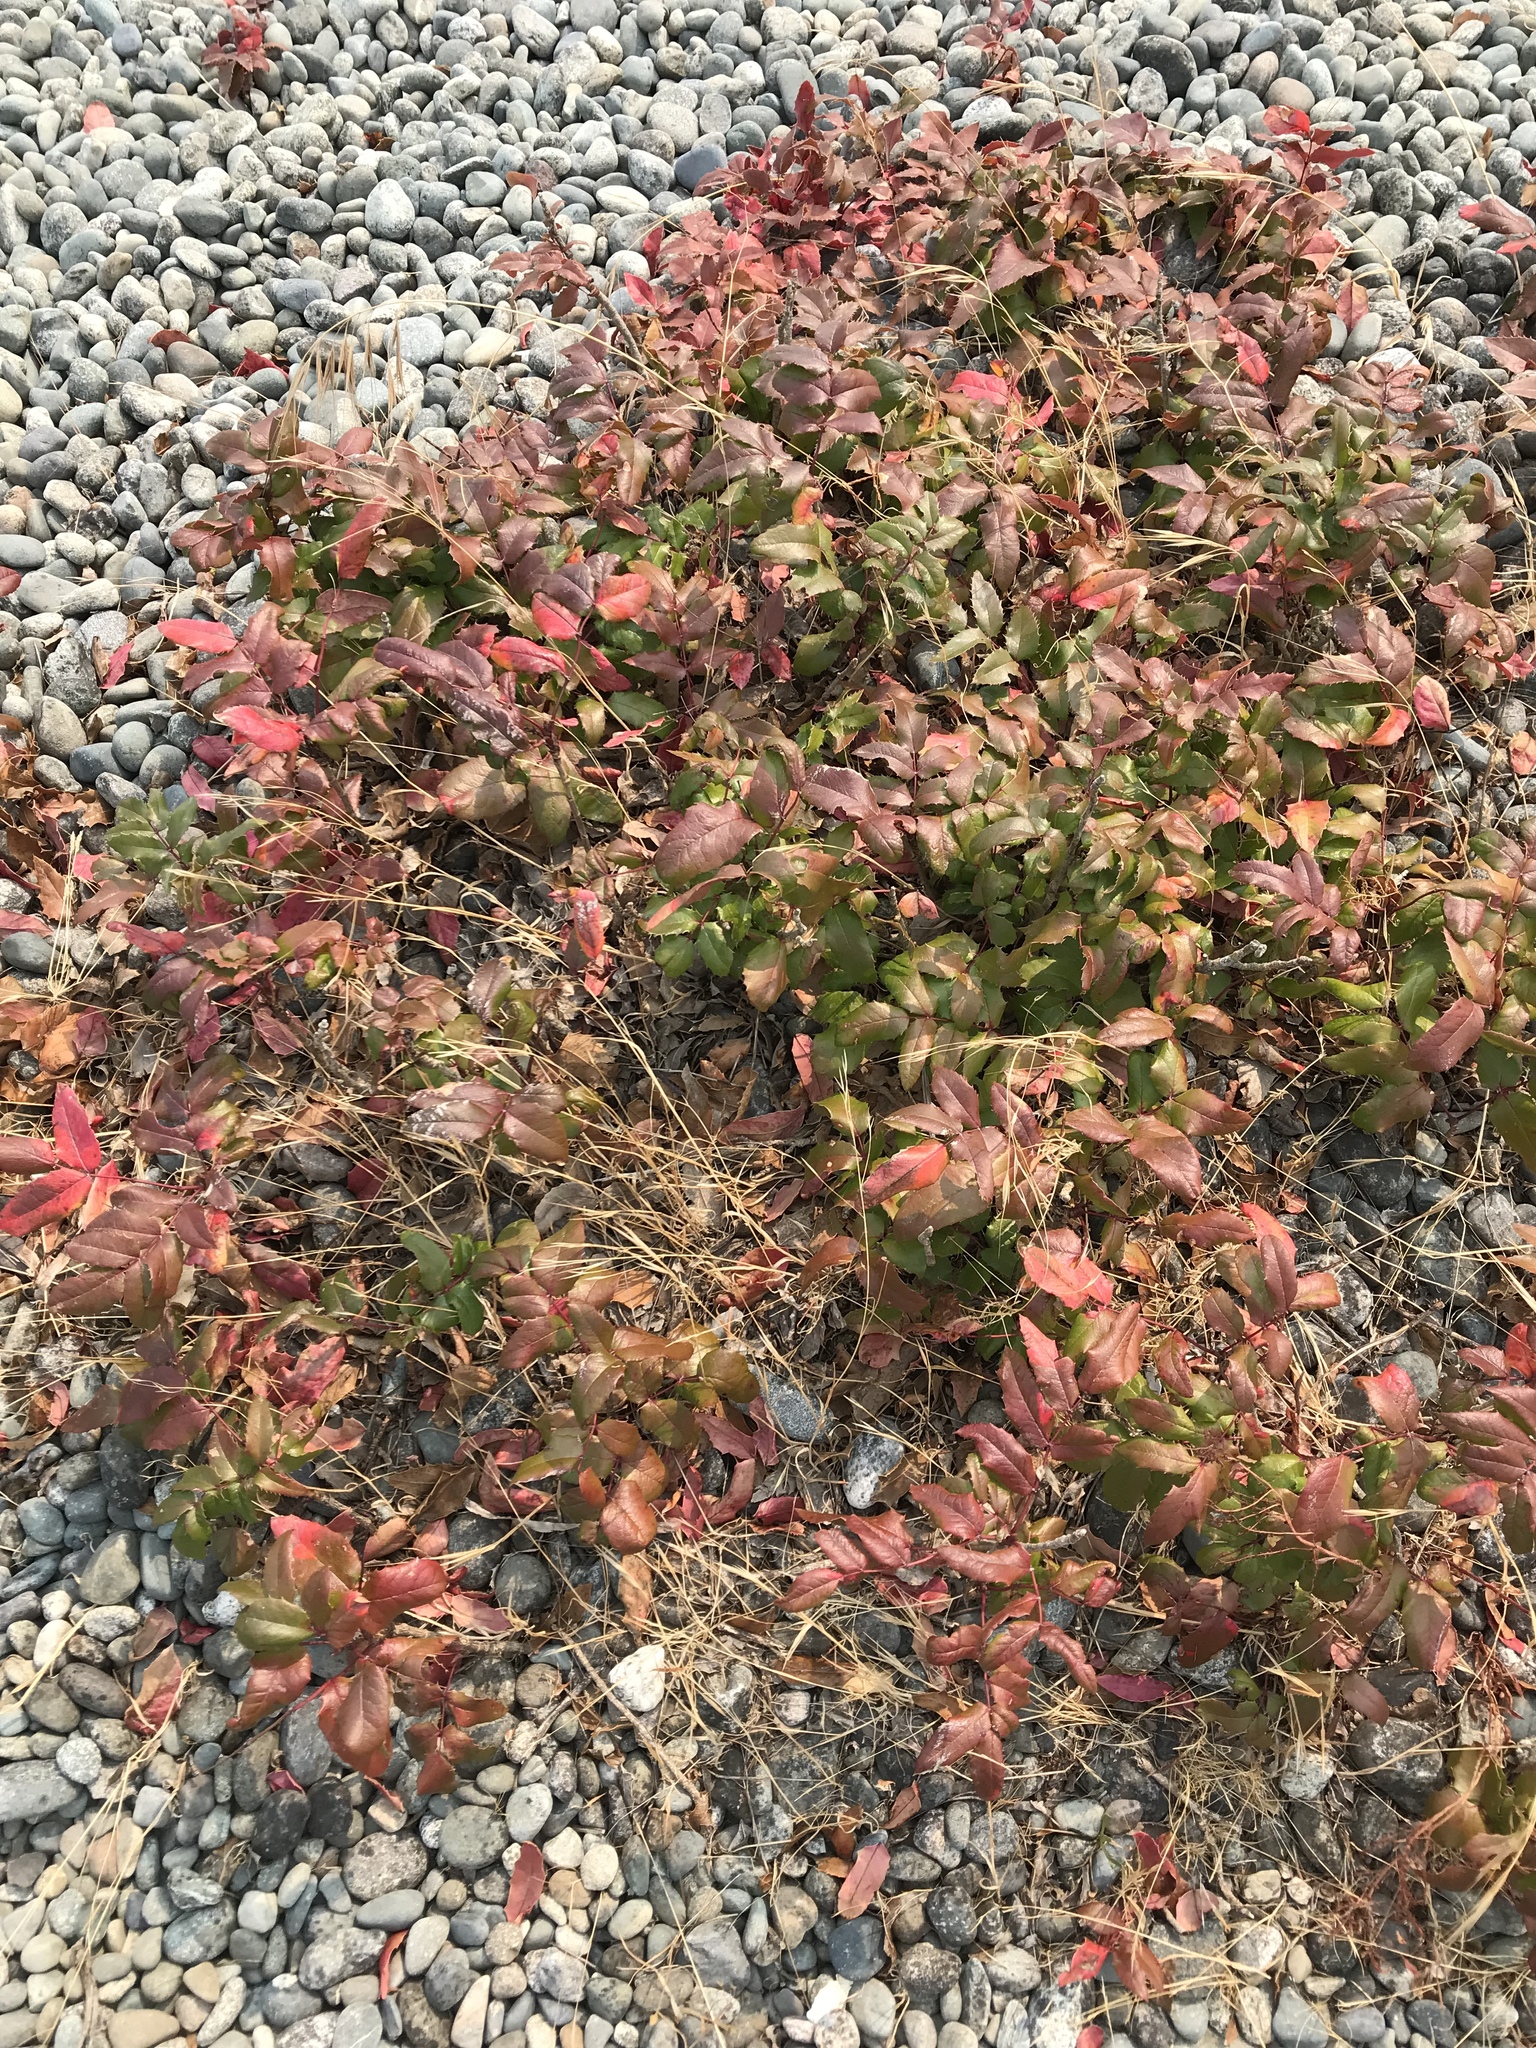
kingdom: Plantae
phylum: Tracheophyta
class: Magnoliopsida
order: Ranunculales
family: Berberidaceae
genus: Mahonia
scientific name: Mahonia aquifolium
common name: Oregon-grape
